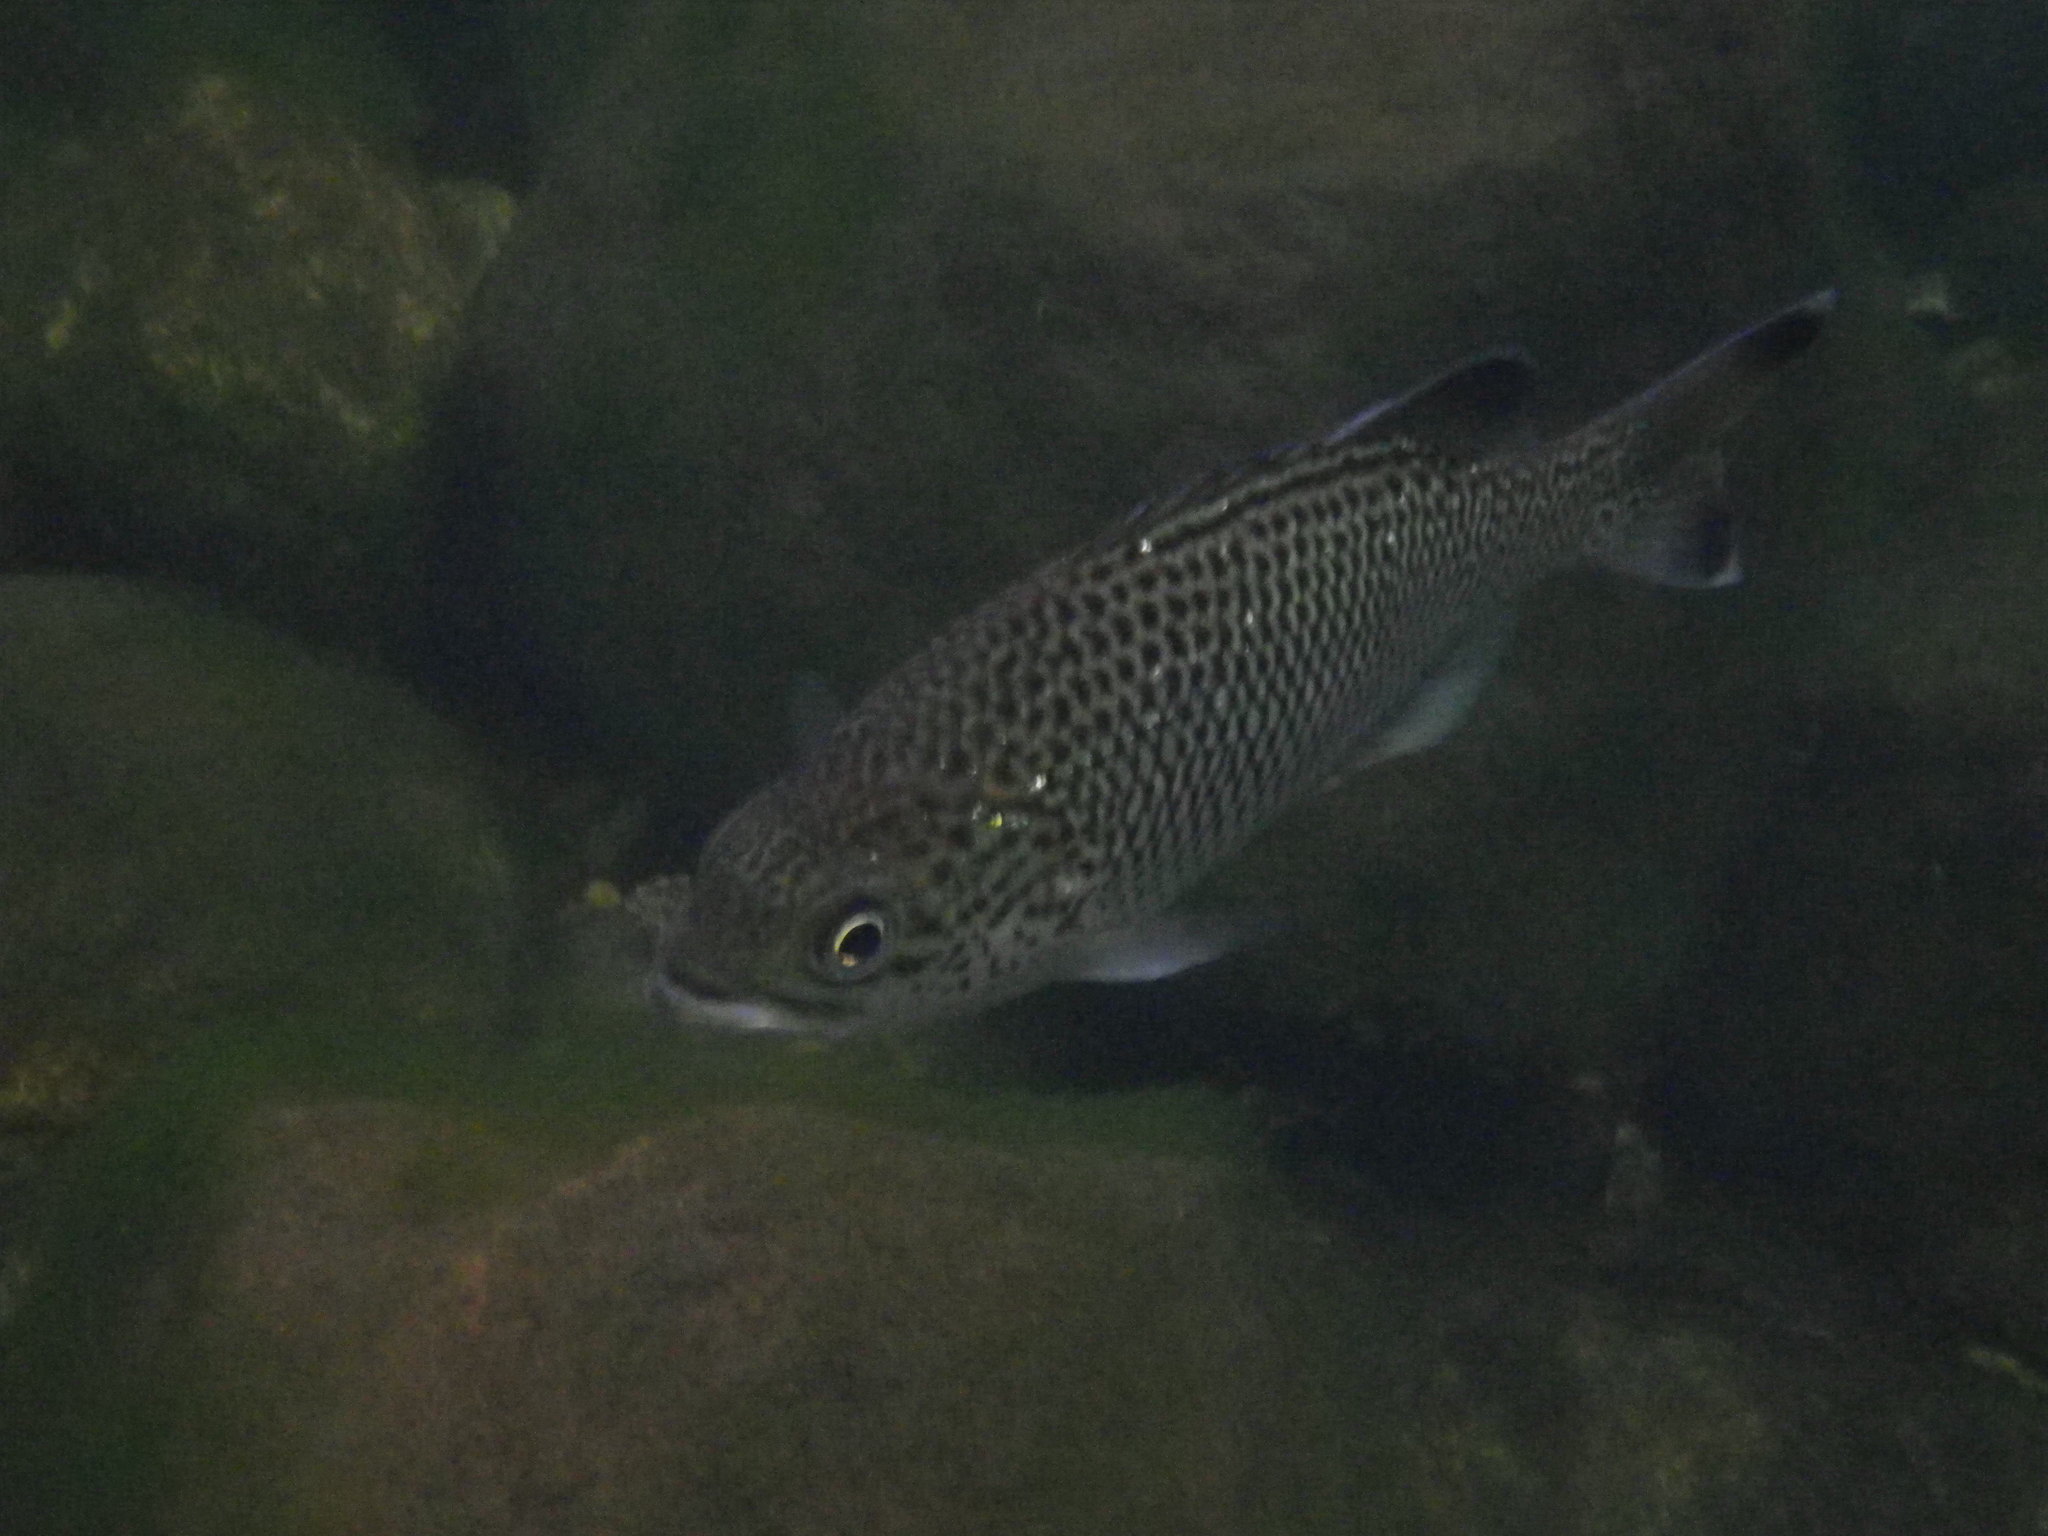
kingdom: Animalia
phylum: Chordata
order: Perciformes
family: Kuhliidae
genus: Kuhlia
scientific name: Kuhlia rupestris
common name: Rock flagtail
